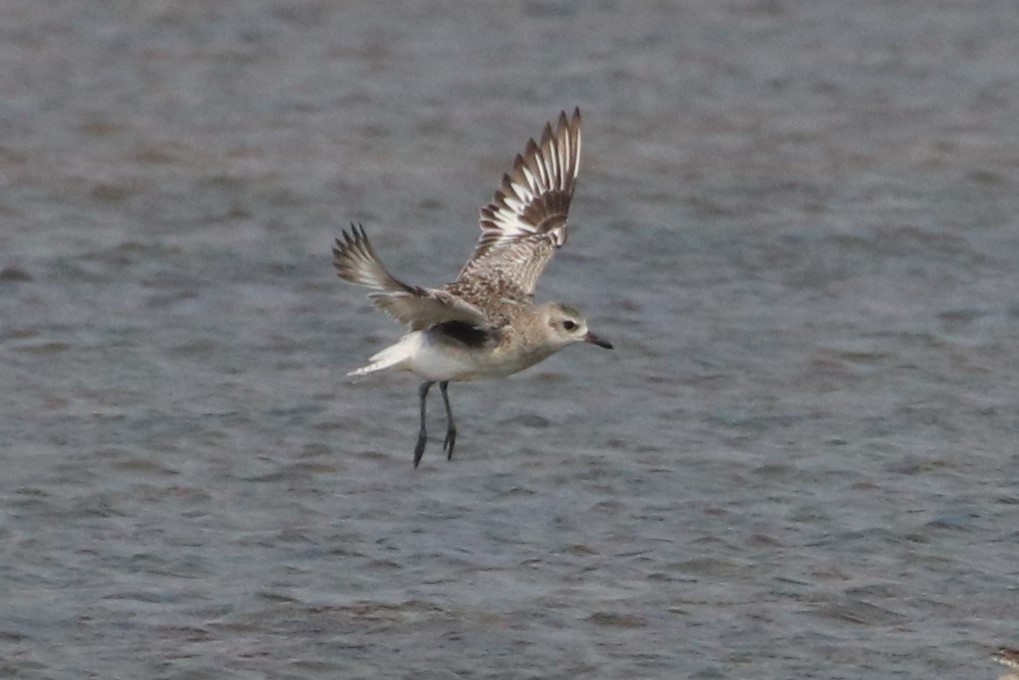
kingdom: Animalia
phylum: Chordata
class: Aves
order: Charadriiformes
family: Charadriidae
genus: Pluvialis
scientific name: Pluvialis squatarola
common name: Grey plover
